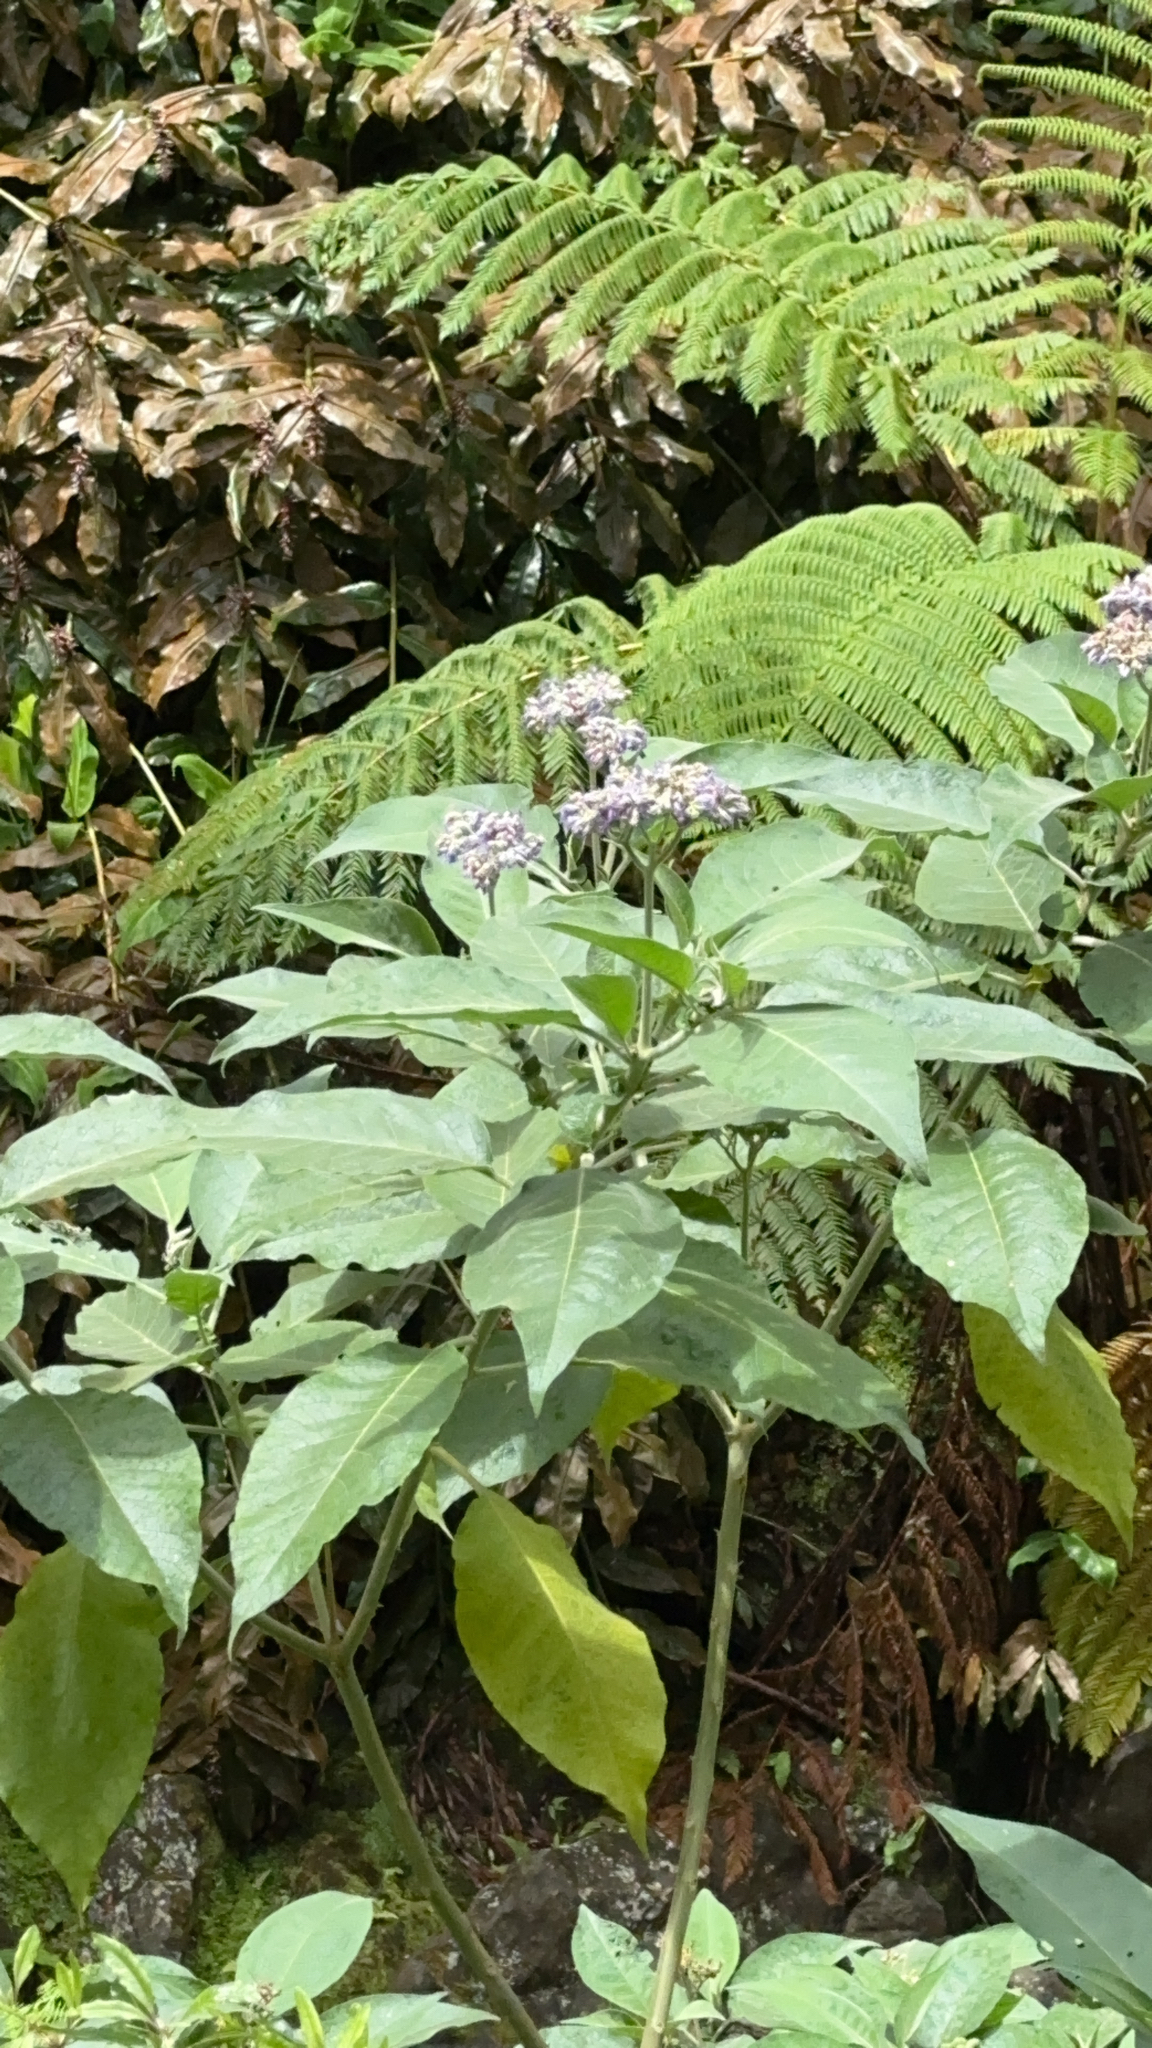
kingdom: Plantae
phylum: Tracheophyta
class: Magnoliopsida
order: Solanales
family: Solanaceae
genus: Solanum
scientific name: Solanum mauritianum
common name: Earleaf nightshade
